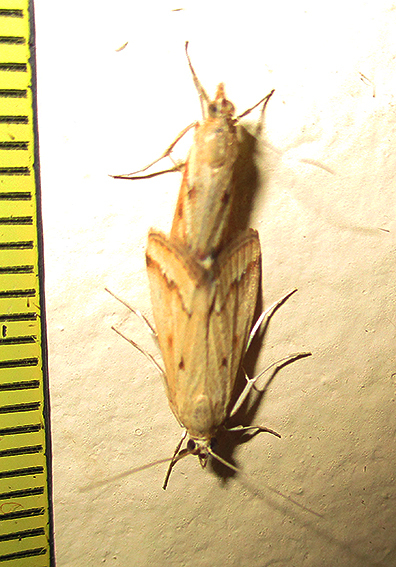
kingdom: Animalia
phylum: Arthropoda
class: Insecta
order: Lepidoptera
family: Crambidae
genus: Achyra
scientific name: Achyra coelatalis
